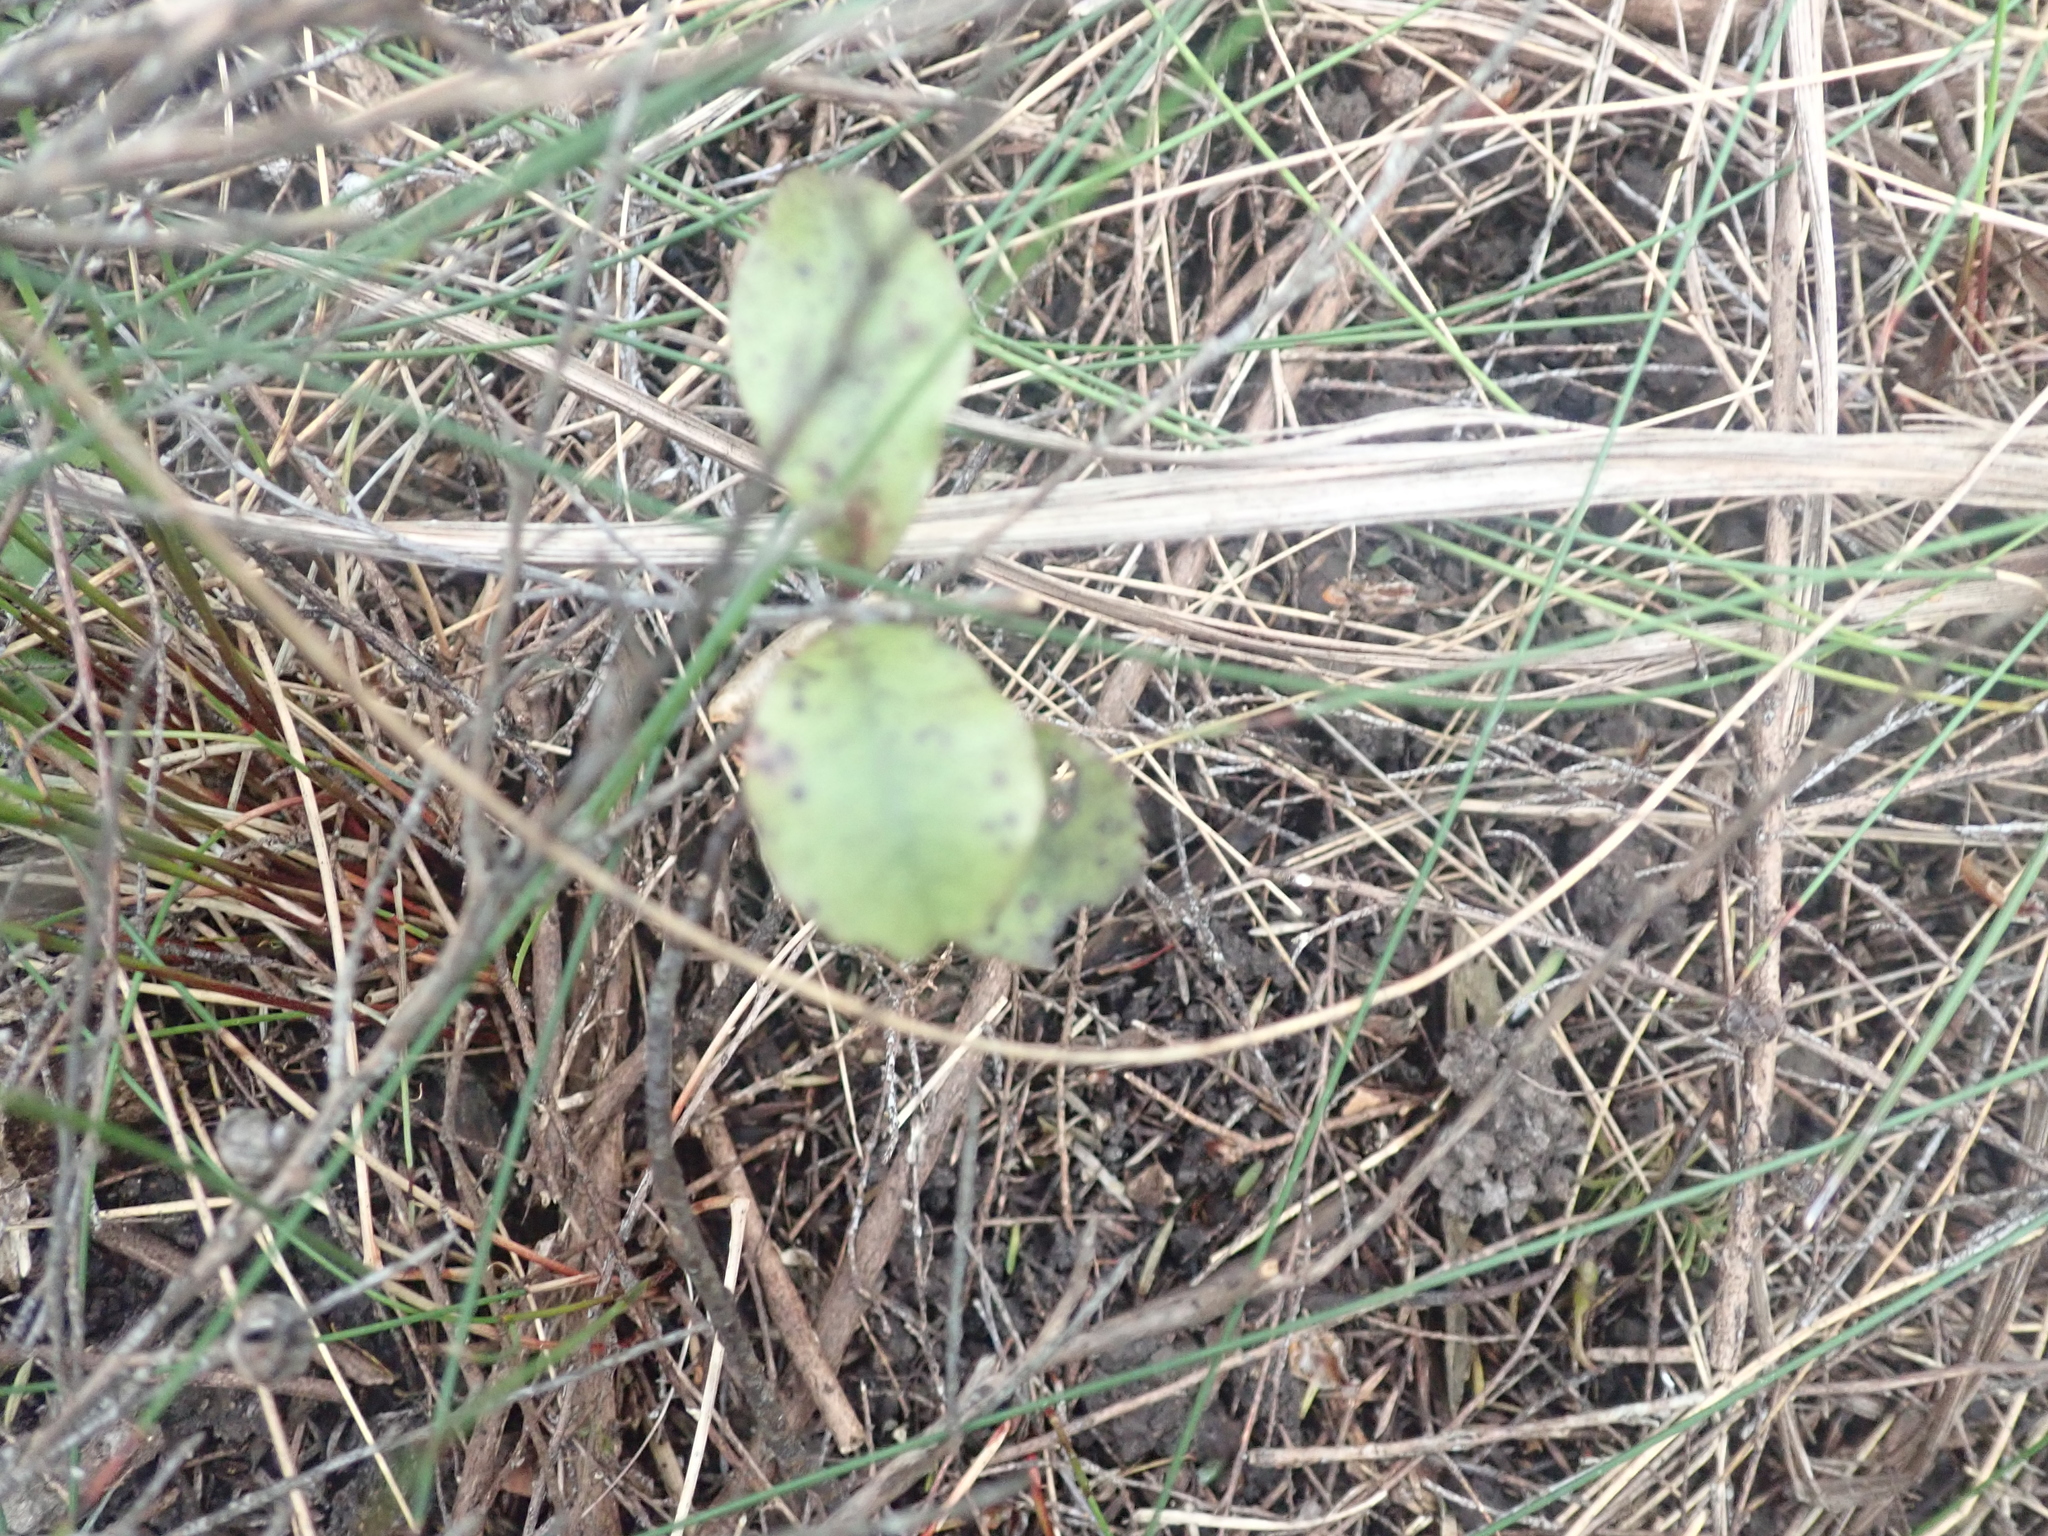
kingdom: Plantae
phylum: Tracheophyta
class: Magnoliopsida
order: Ericales
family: Primulaceae
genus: Myrsine
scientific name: Myrsine australis
